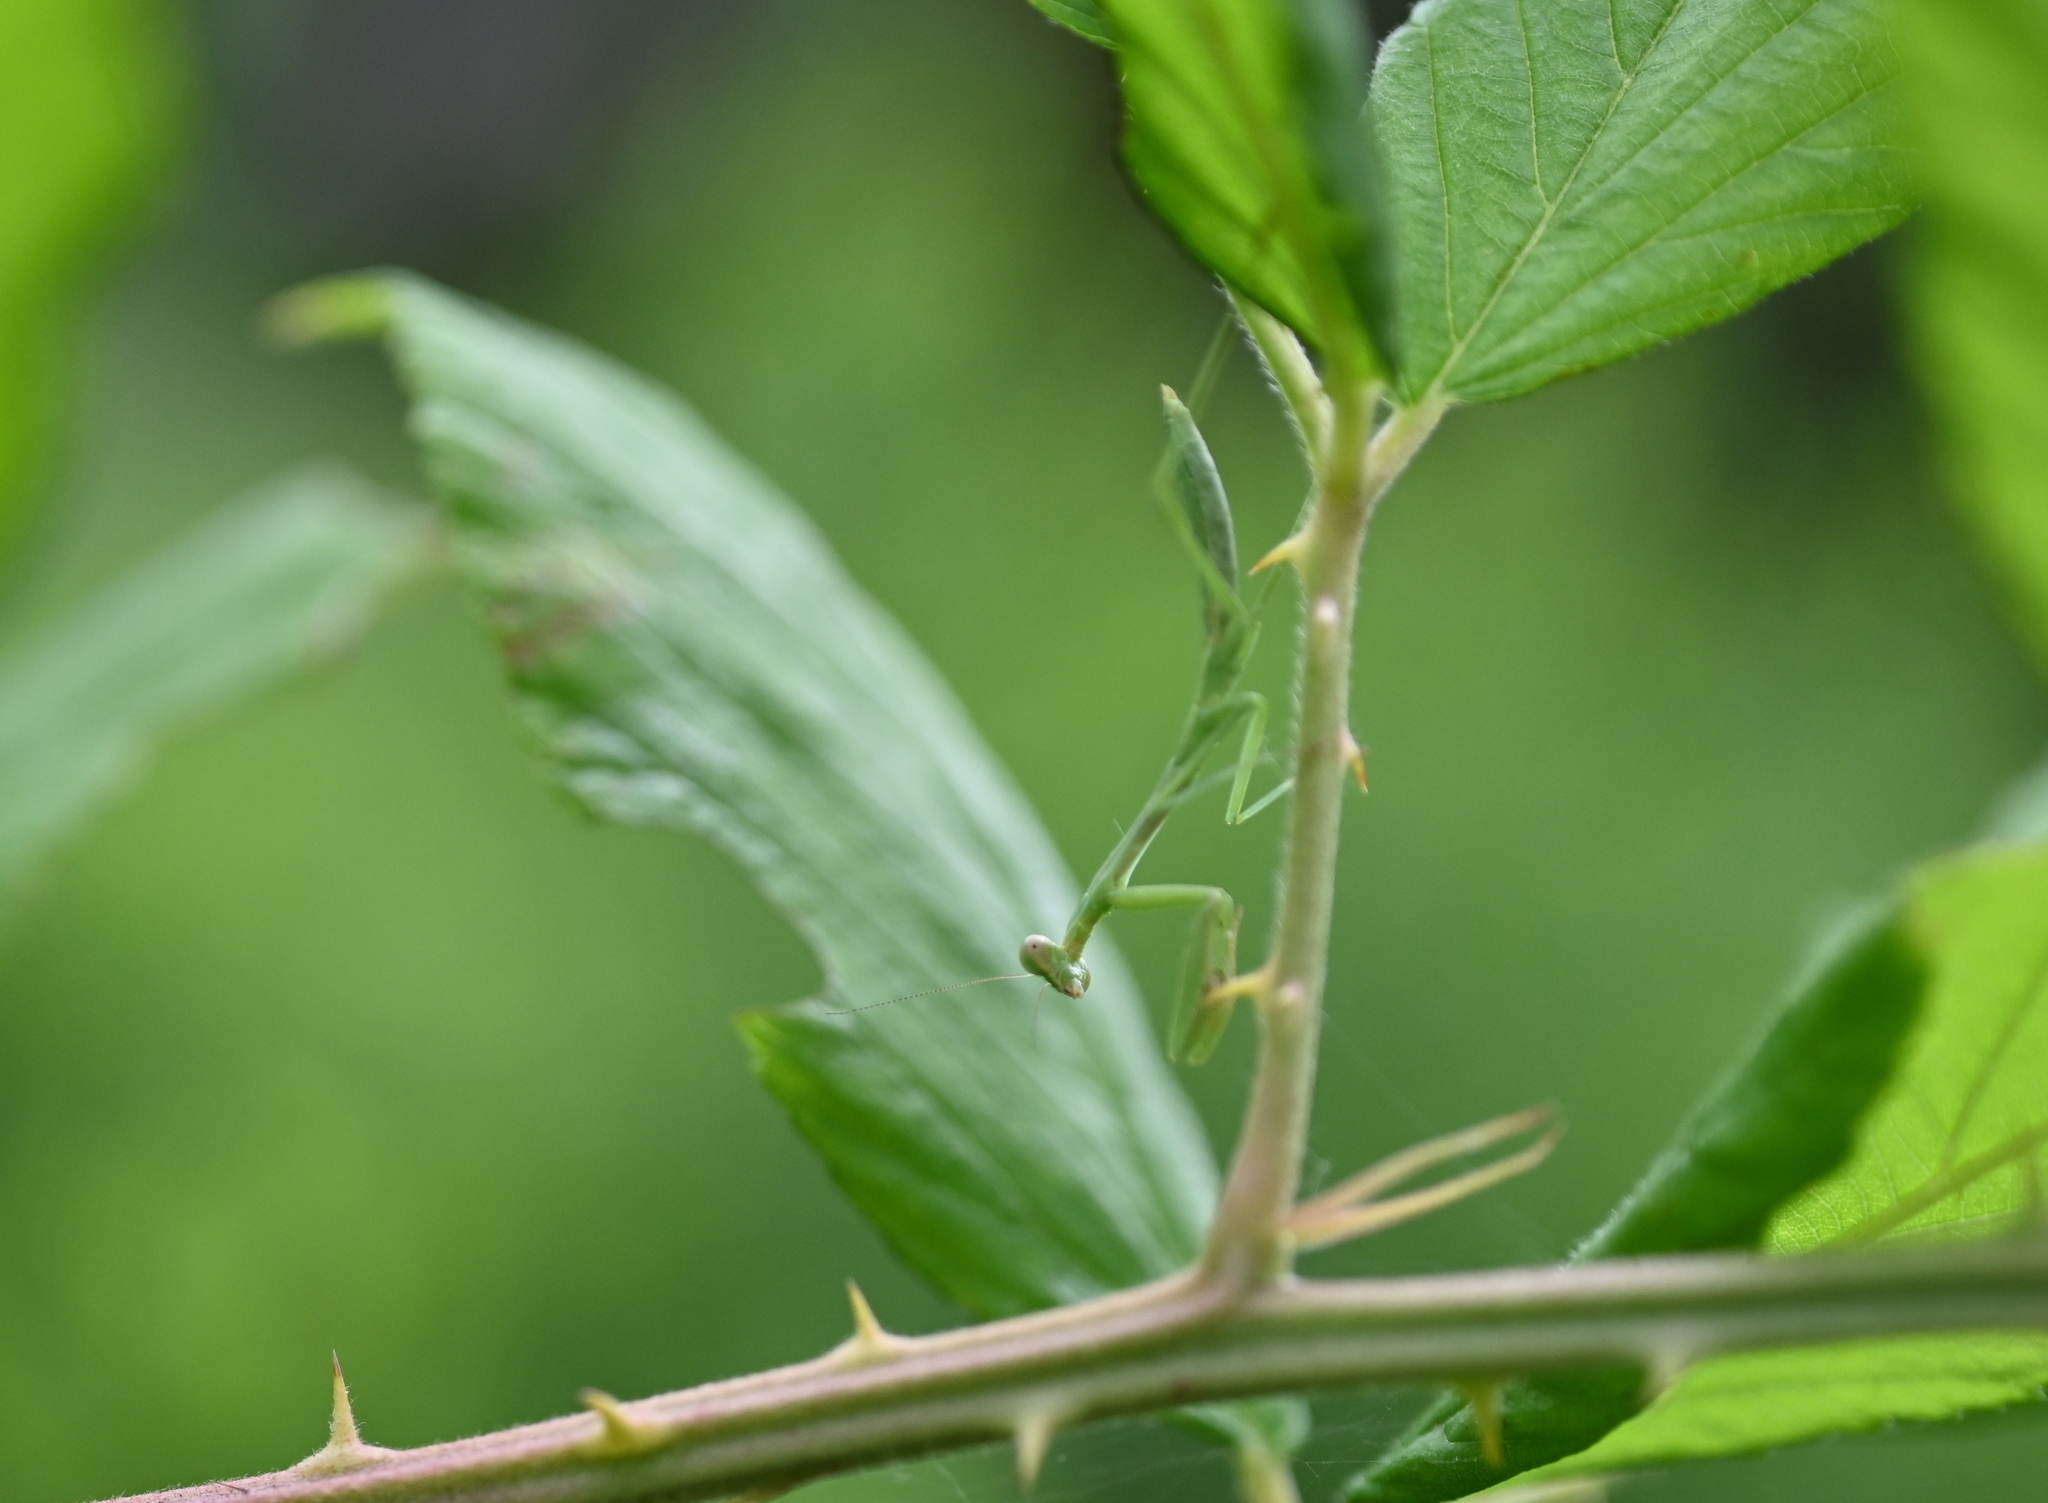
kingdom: Animalia
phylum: Arthropoda
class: Insecta
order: Mantodea
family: Mantidae
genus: Stagmomantis
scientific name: Stagmomantis carolina
